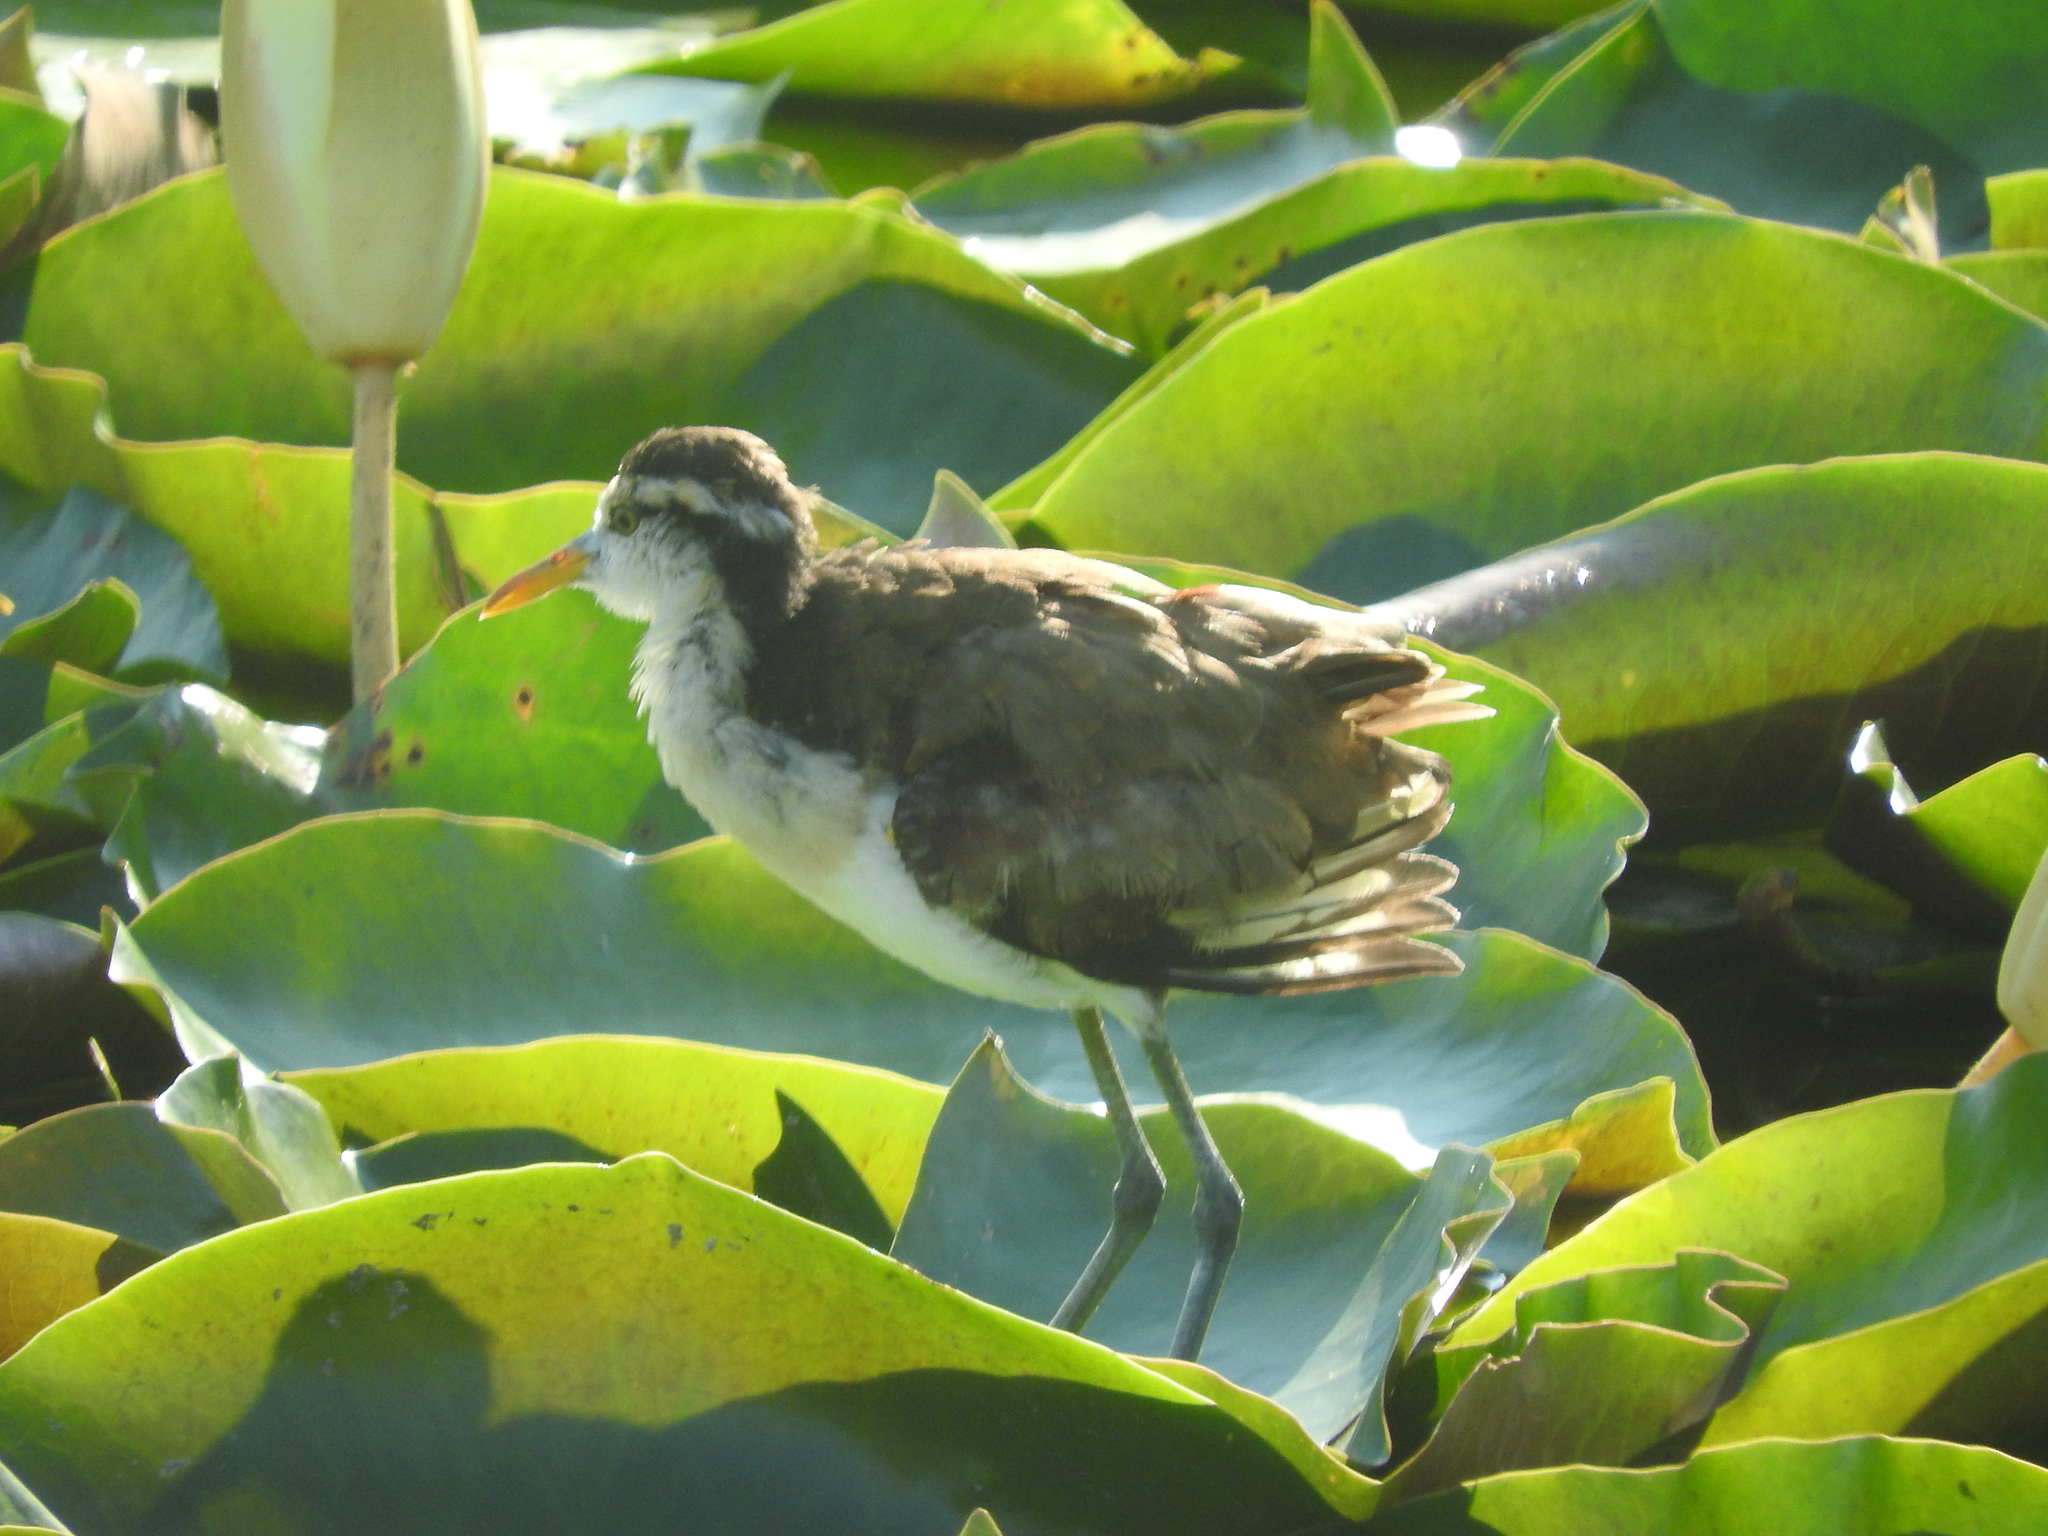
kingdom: Animalia
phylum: Chordata
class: Aves
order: Charadriiformes
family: Jacanidae
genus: Jacana
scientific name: Jacana spinosa
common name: Northern jacana
